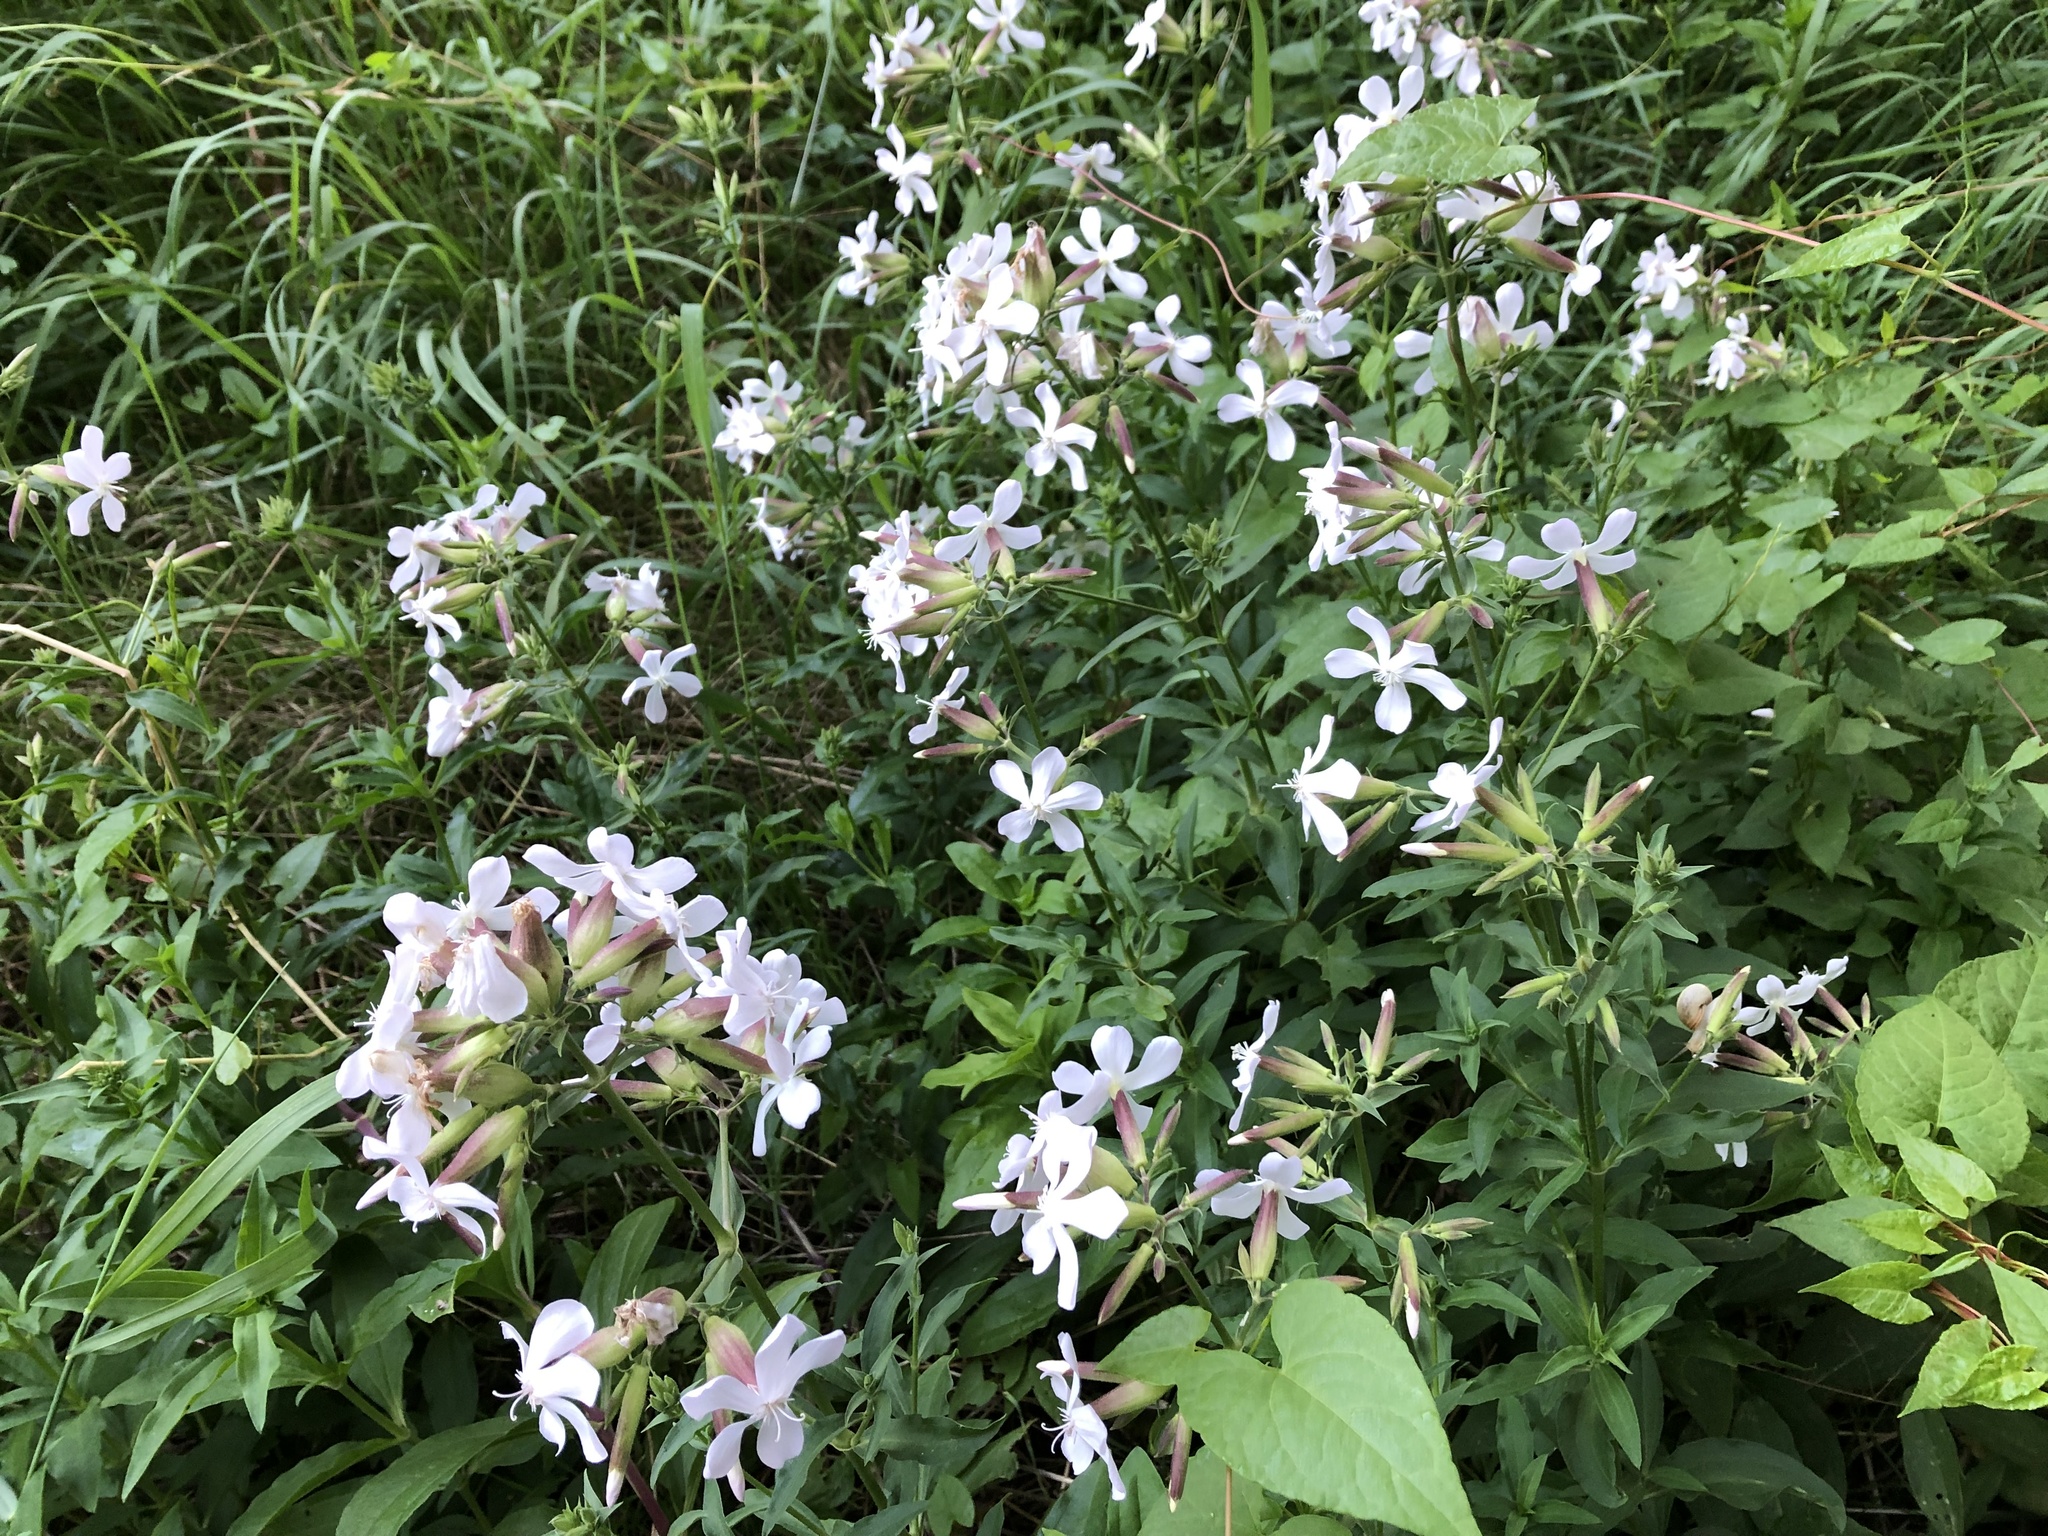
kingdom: Plantae
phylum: Tracheophyta
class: Magnoliopsida
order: Caryophyllales
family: Caryophyllaceae
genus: Saponaria
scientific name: Saponaria officinalis
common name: Soapwort
